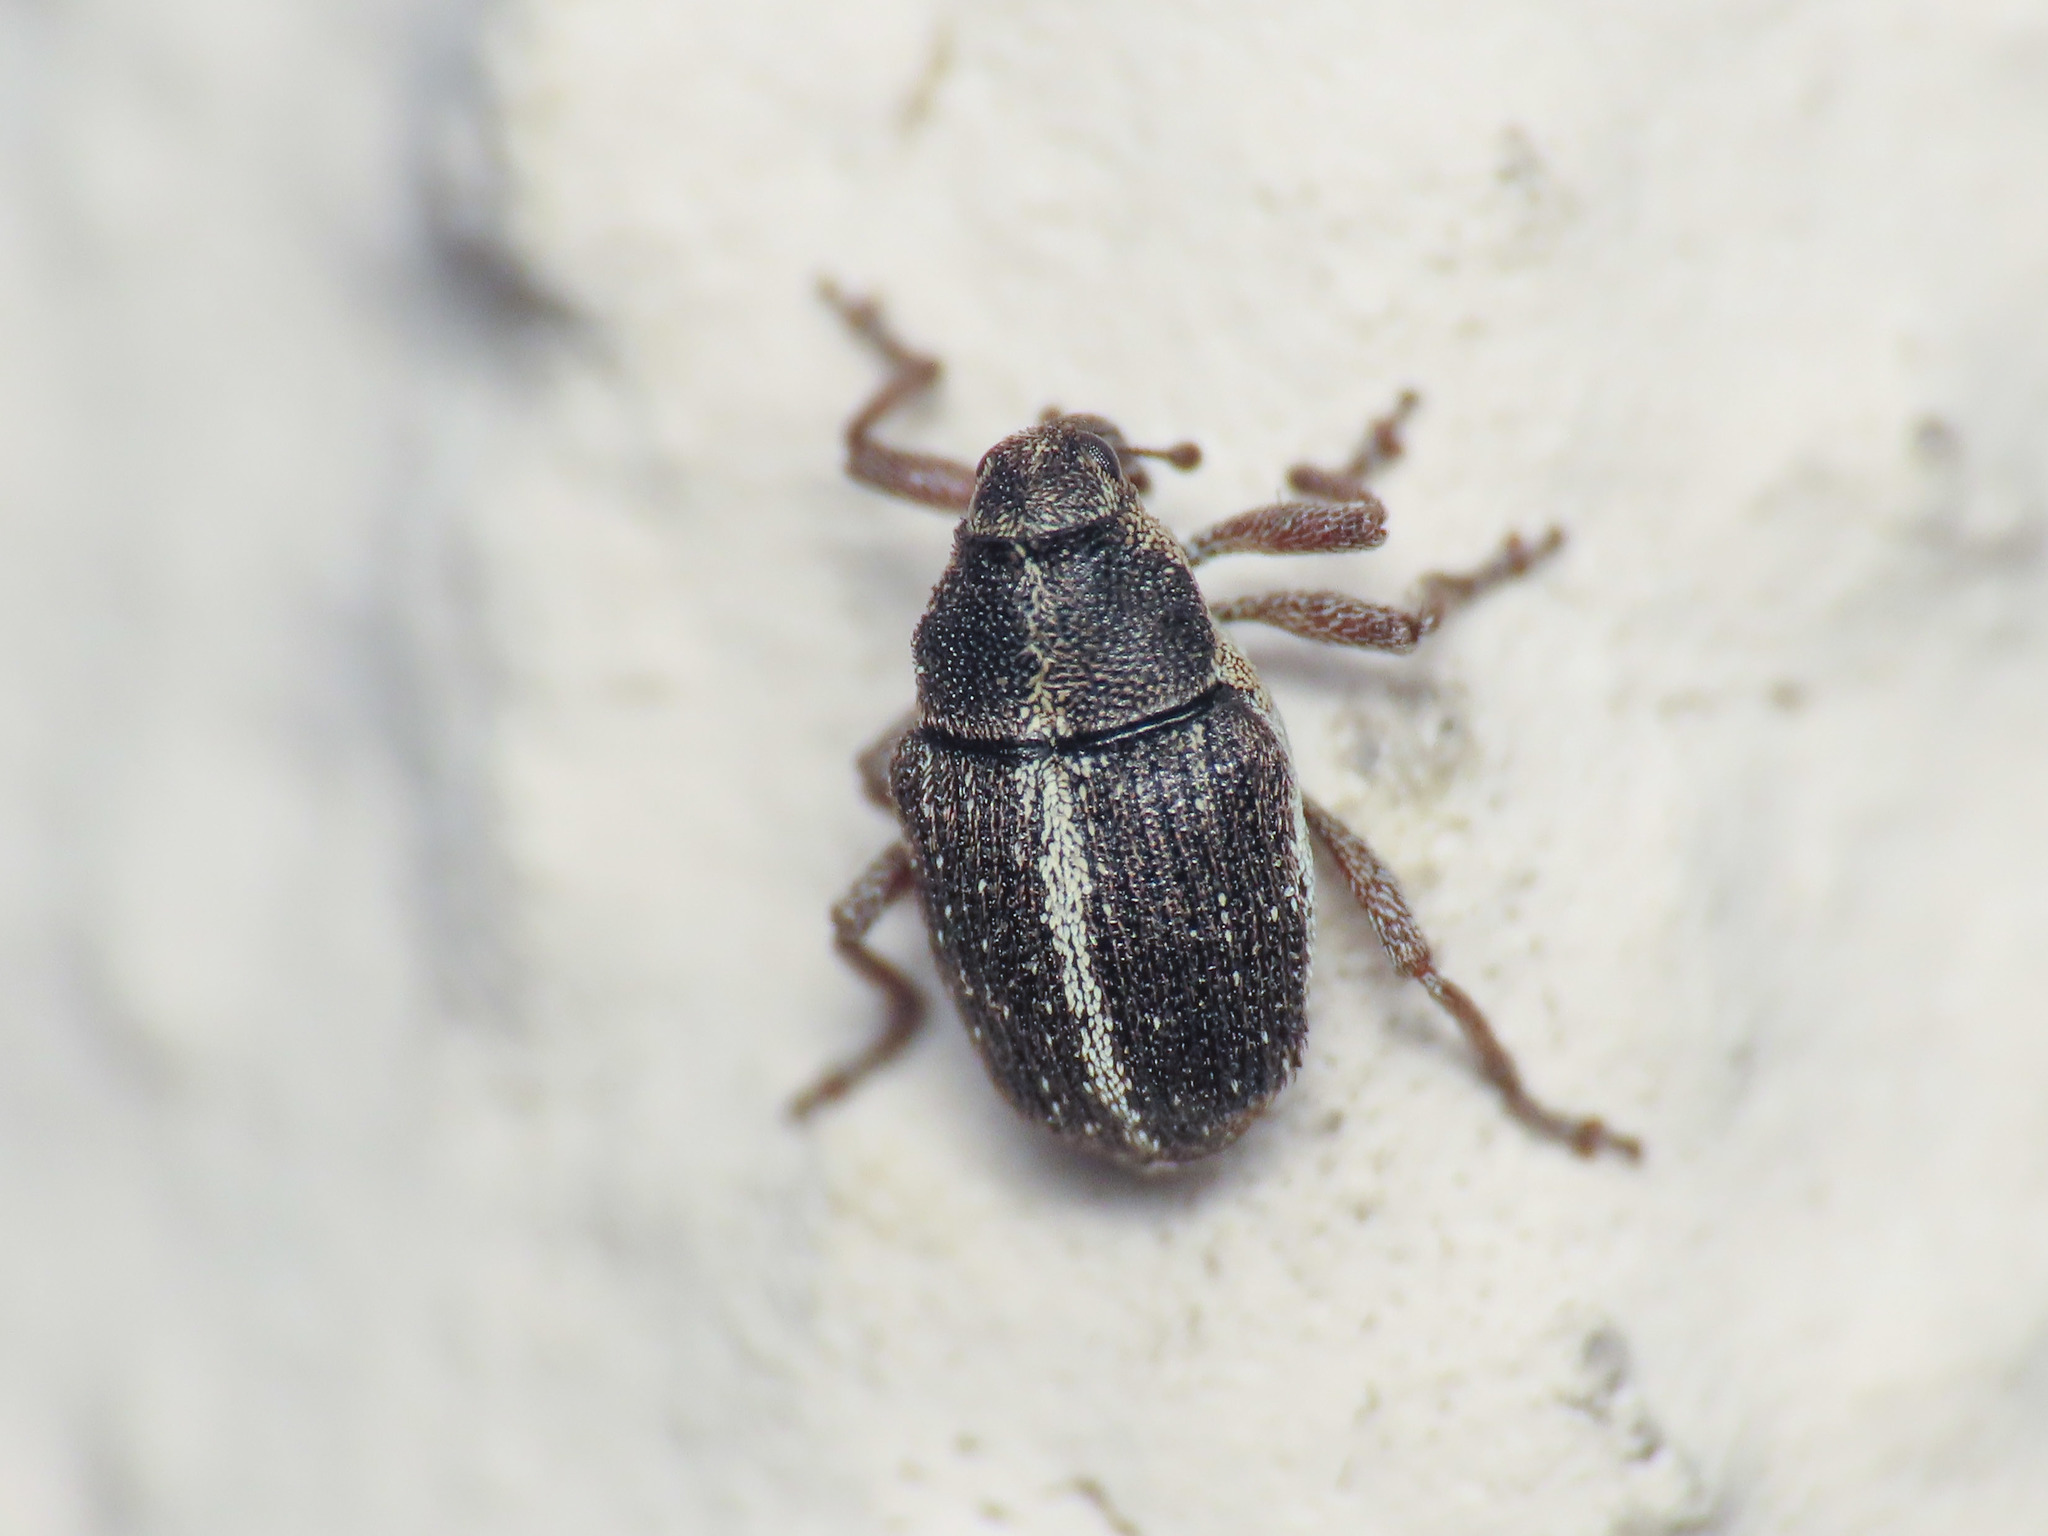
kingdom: Animalia
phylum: Arthropoda
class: Insecta
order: Coleoptera
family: Curculionidae
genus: Oprohinus
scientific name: Oprohinus suturalis
